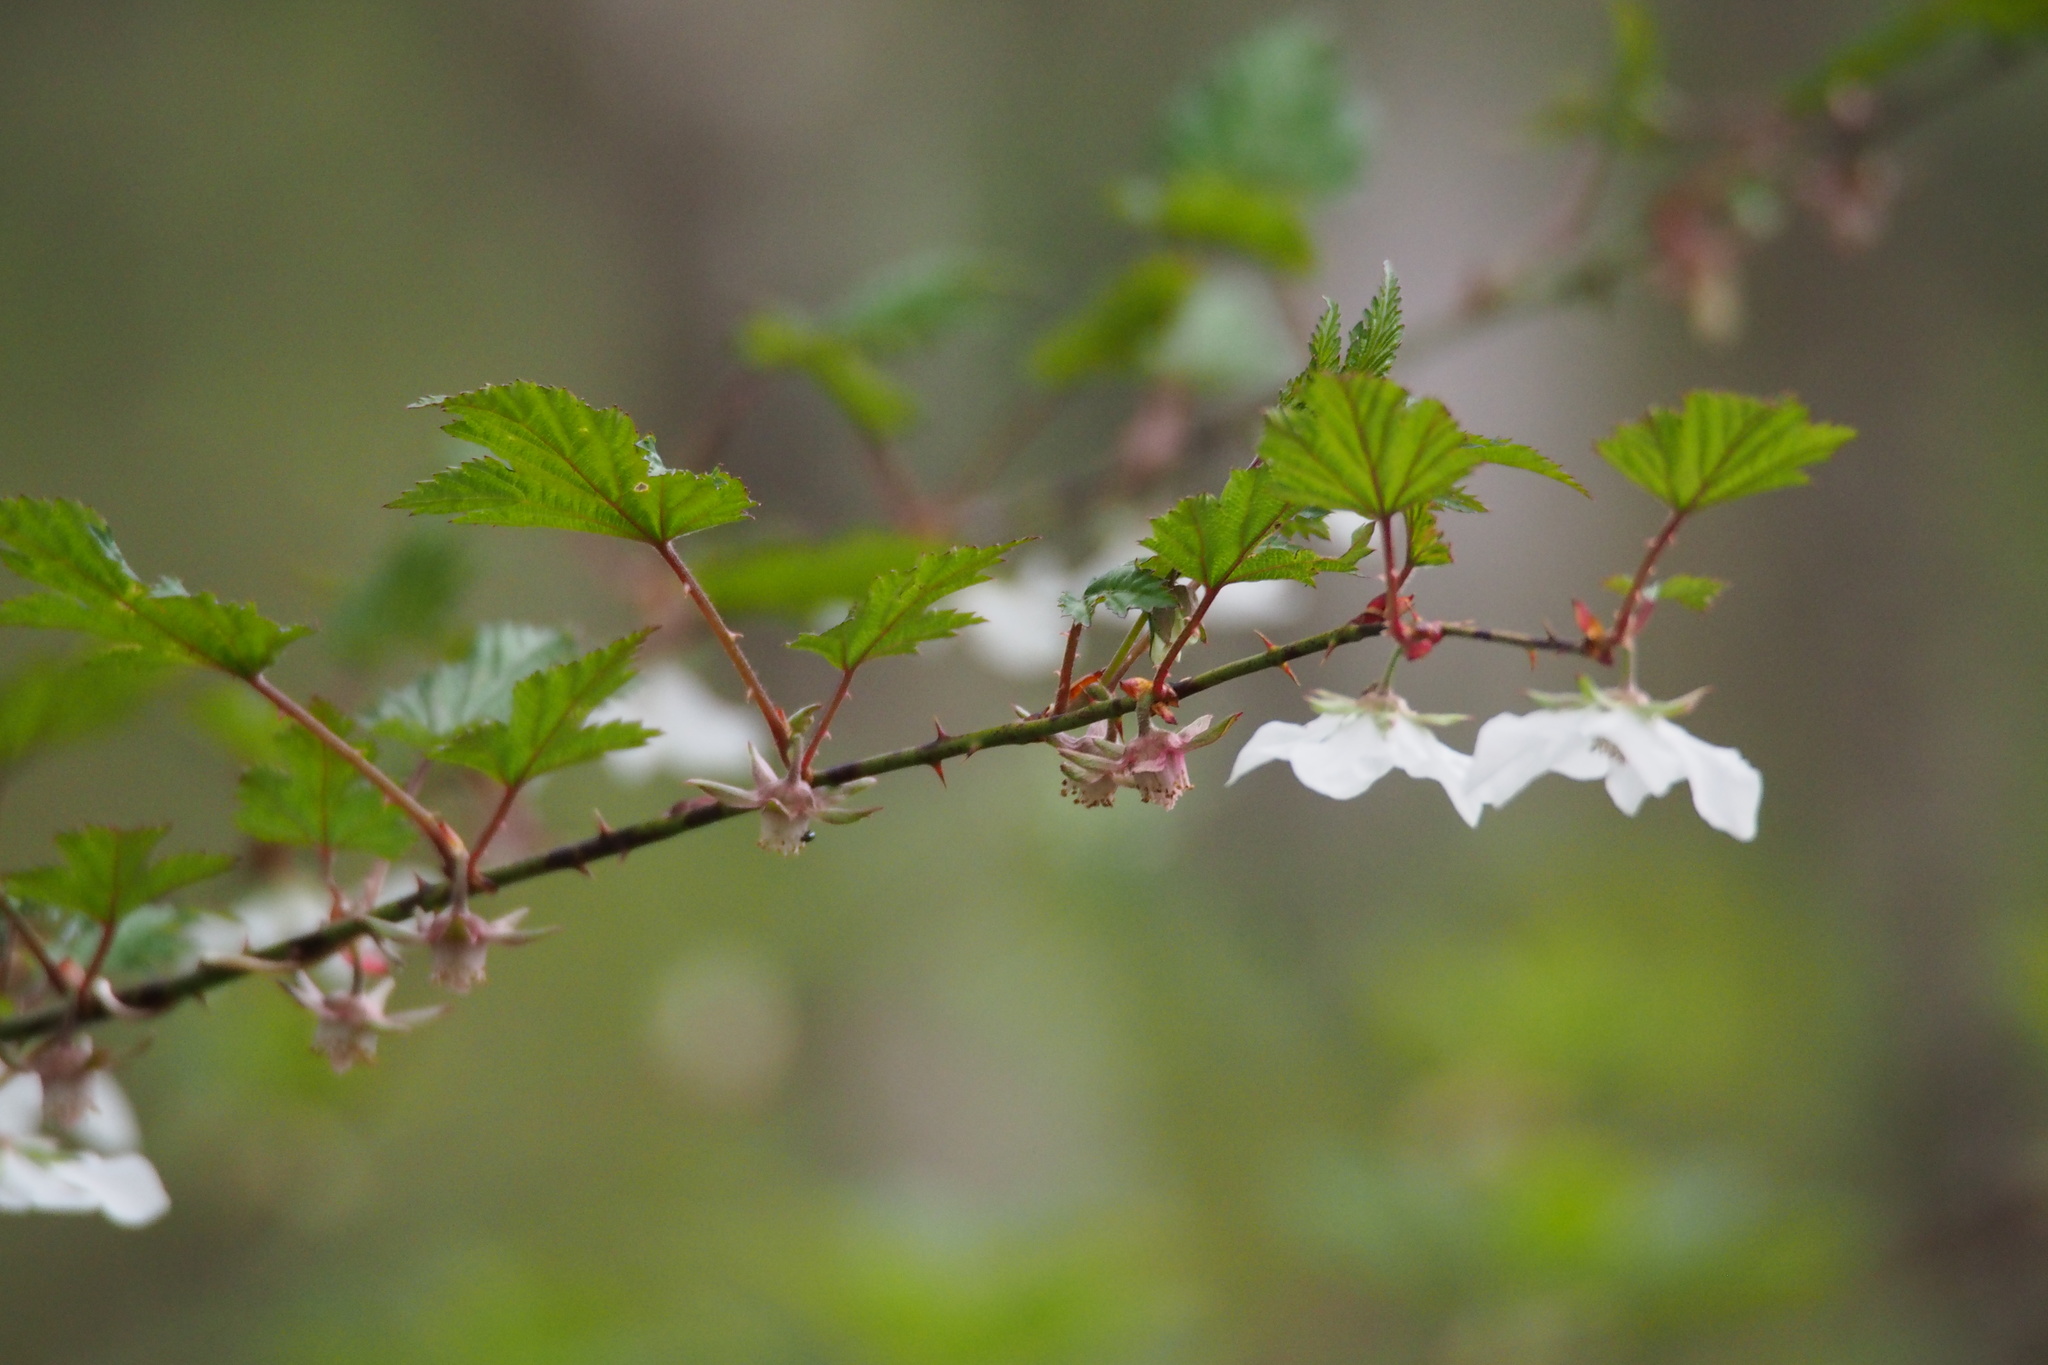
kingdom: Plantae
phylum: Tracheophyta
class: Magnoliopsida
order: Rosales
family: Rosaceae
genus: Rubus
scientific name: Rubus palmatus
